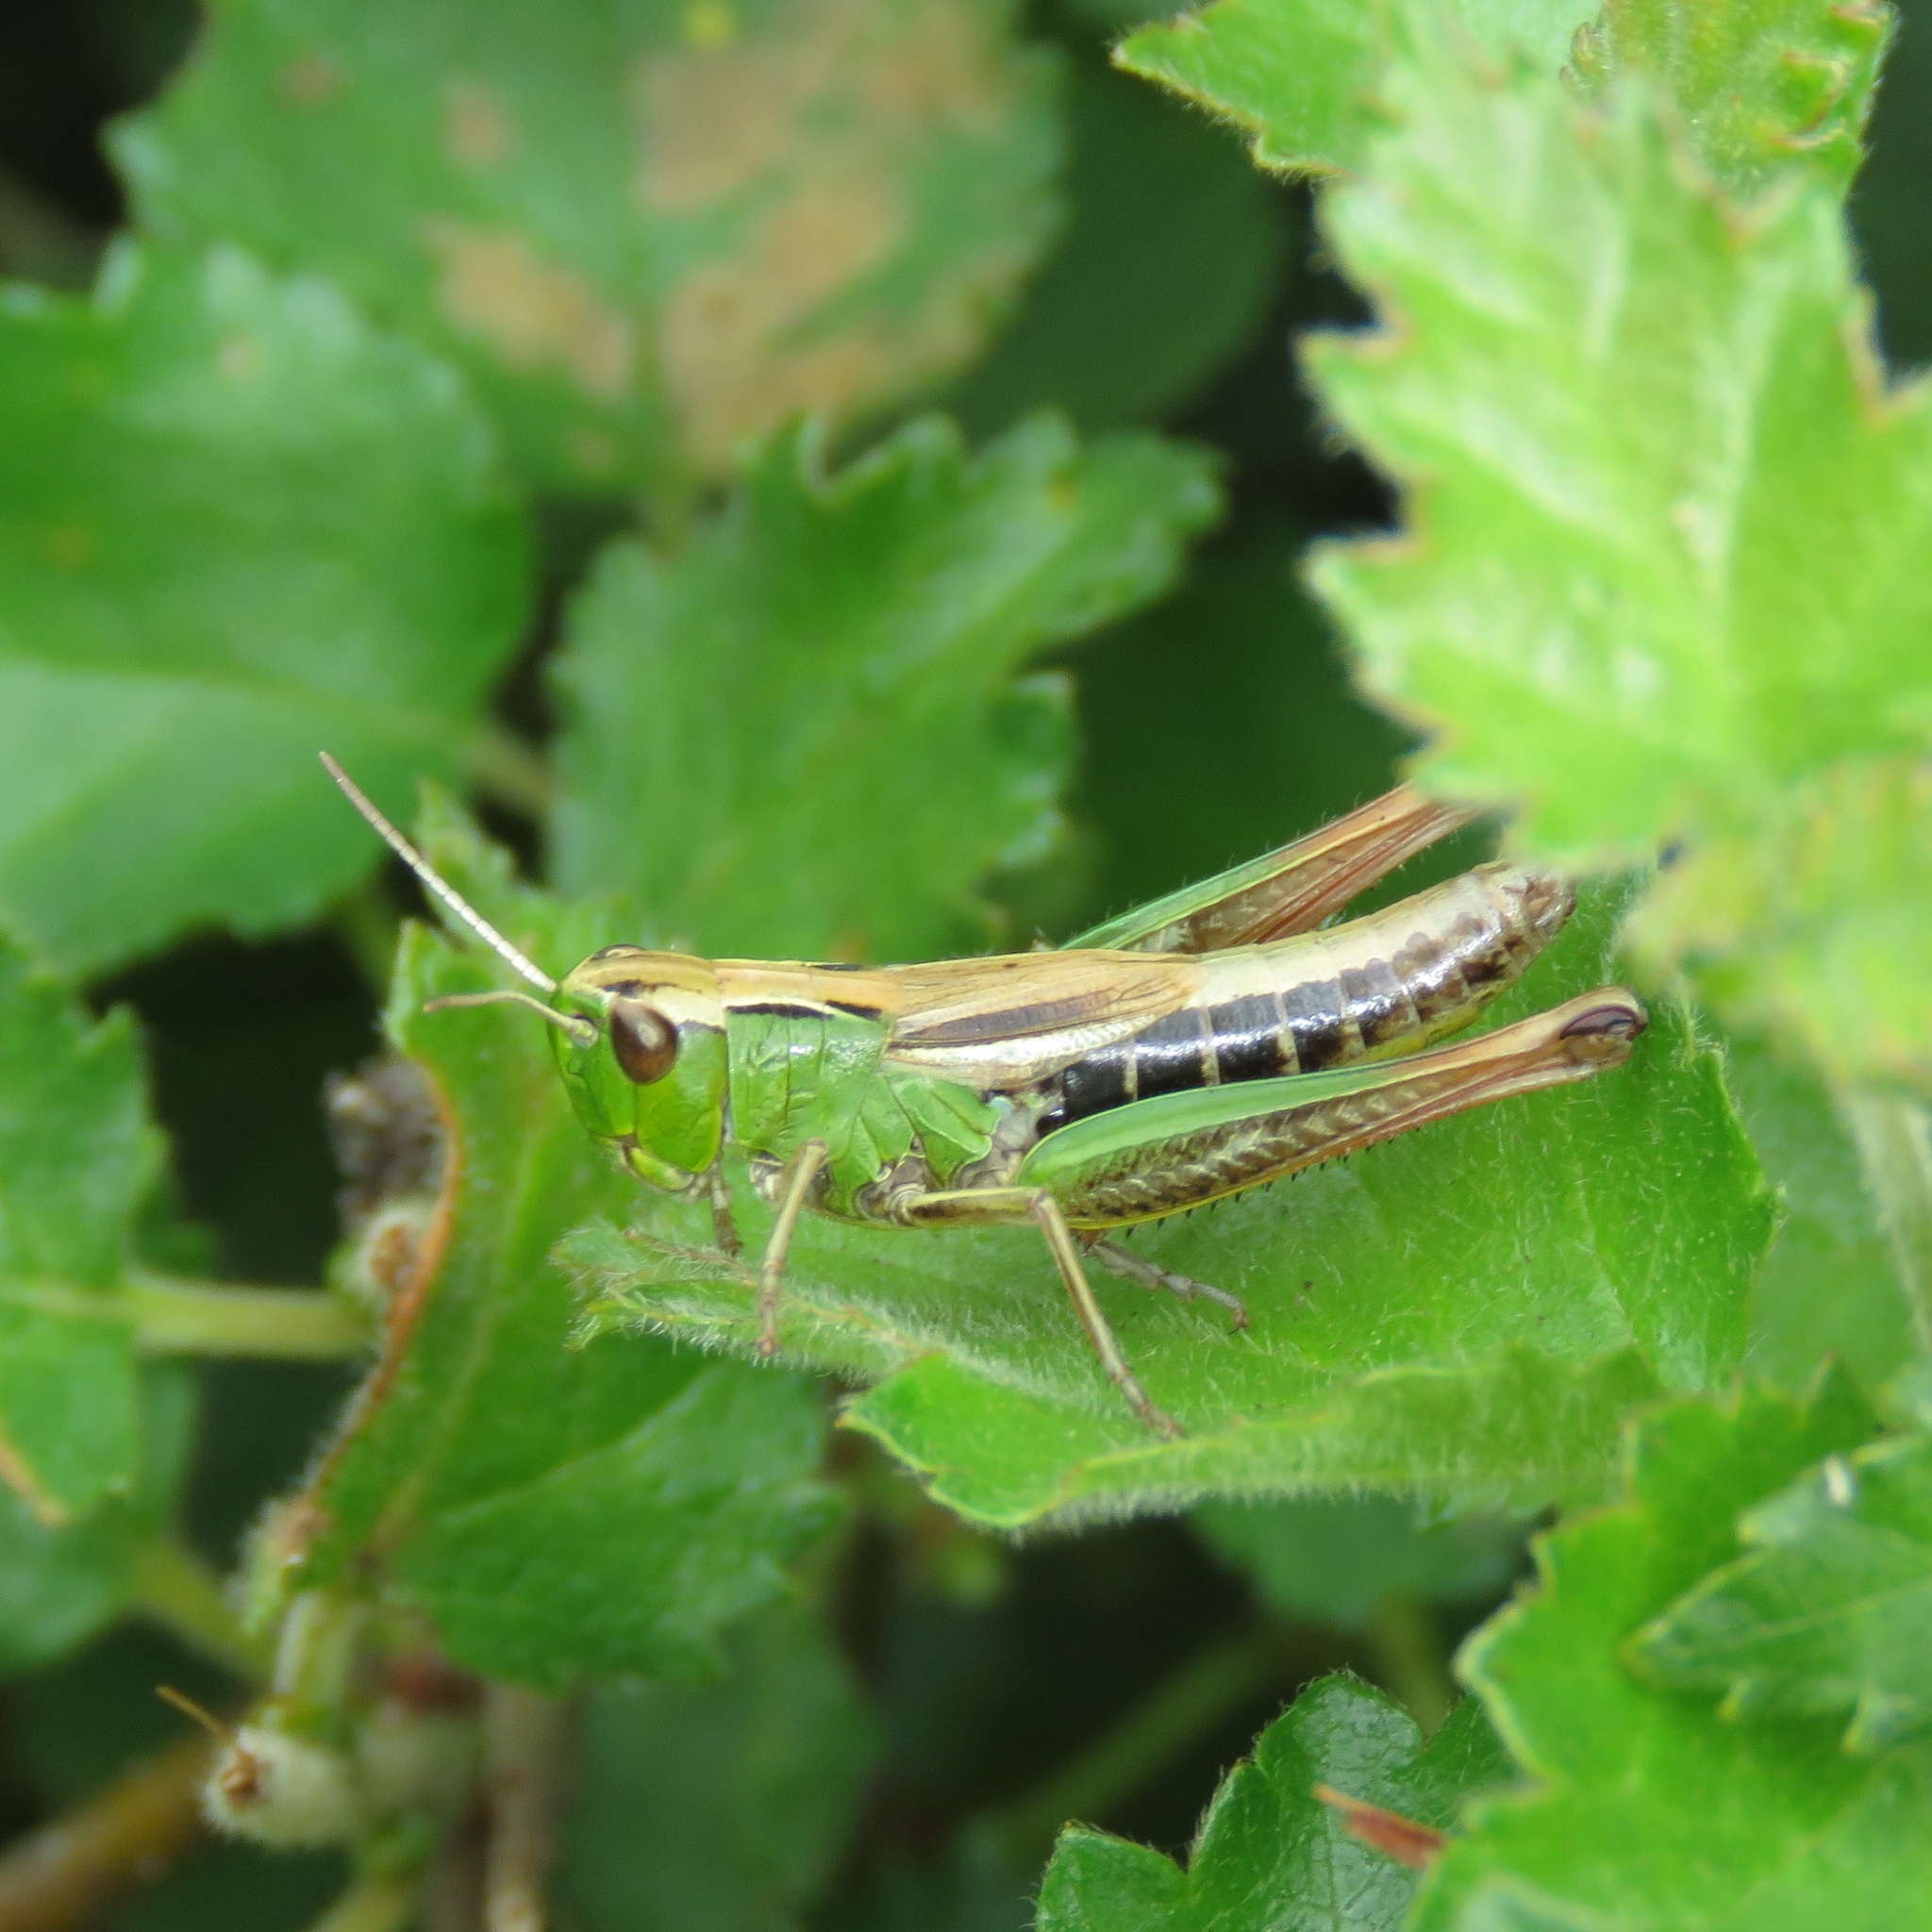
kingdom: Animalia
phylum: Arthropoda
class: Insecta
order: Orthoptera
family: Acrididae
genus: Pseudochorthippus
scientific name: Pseudochorthippus parallelus
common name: Meadow grasshopper
